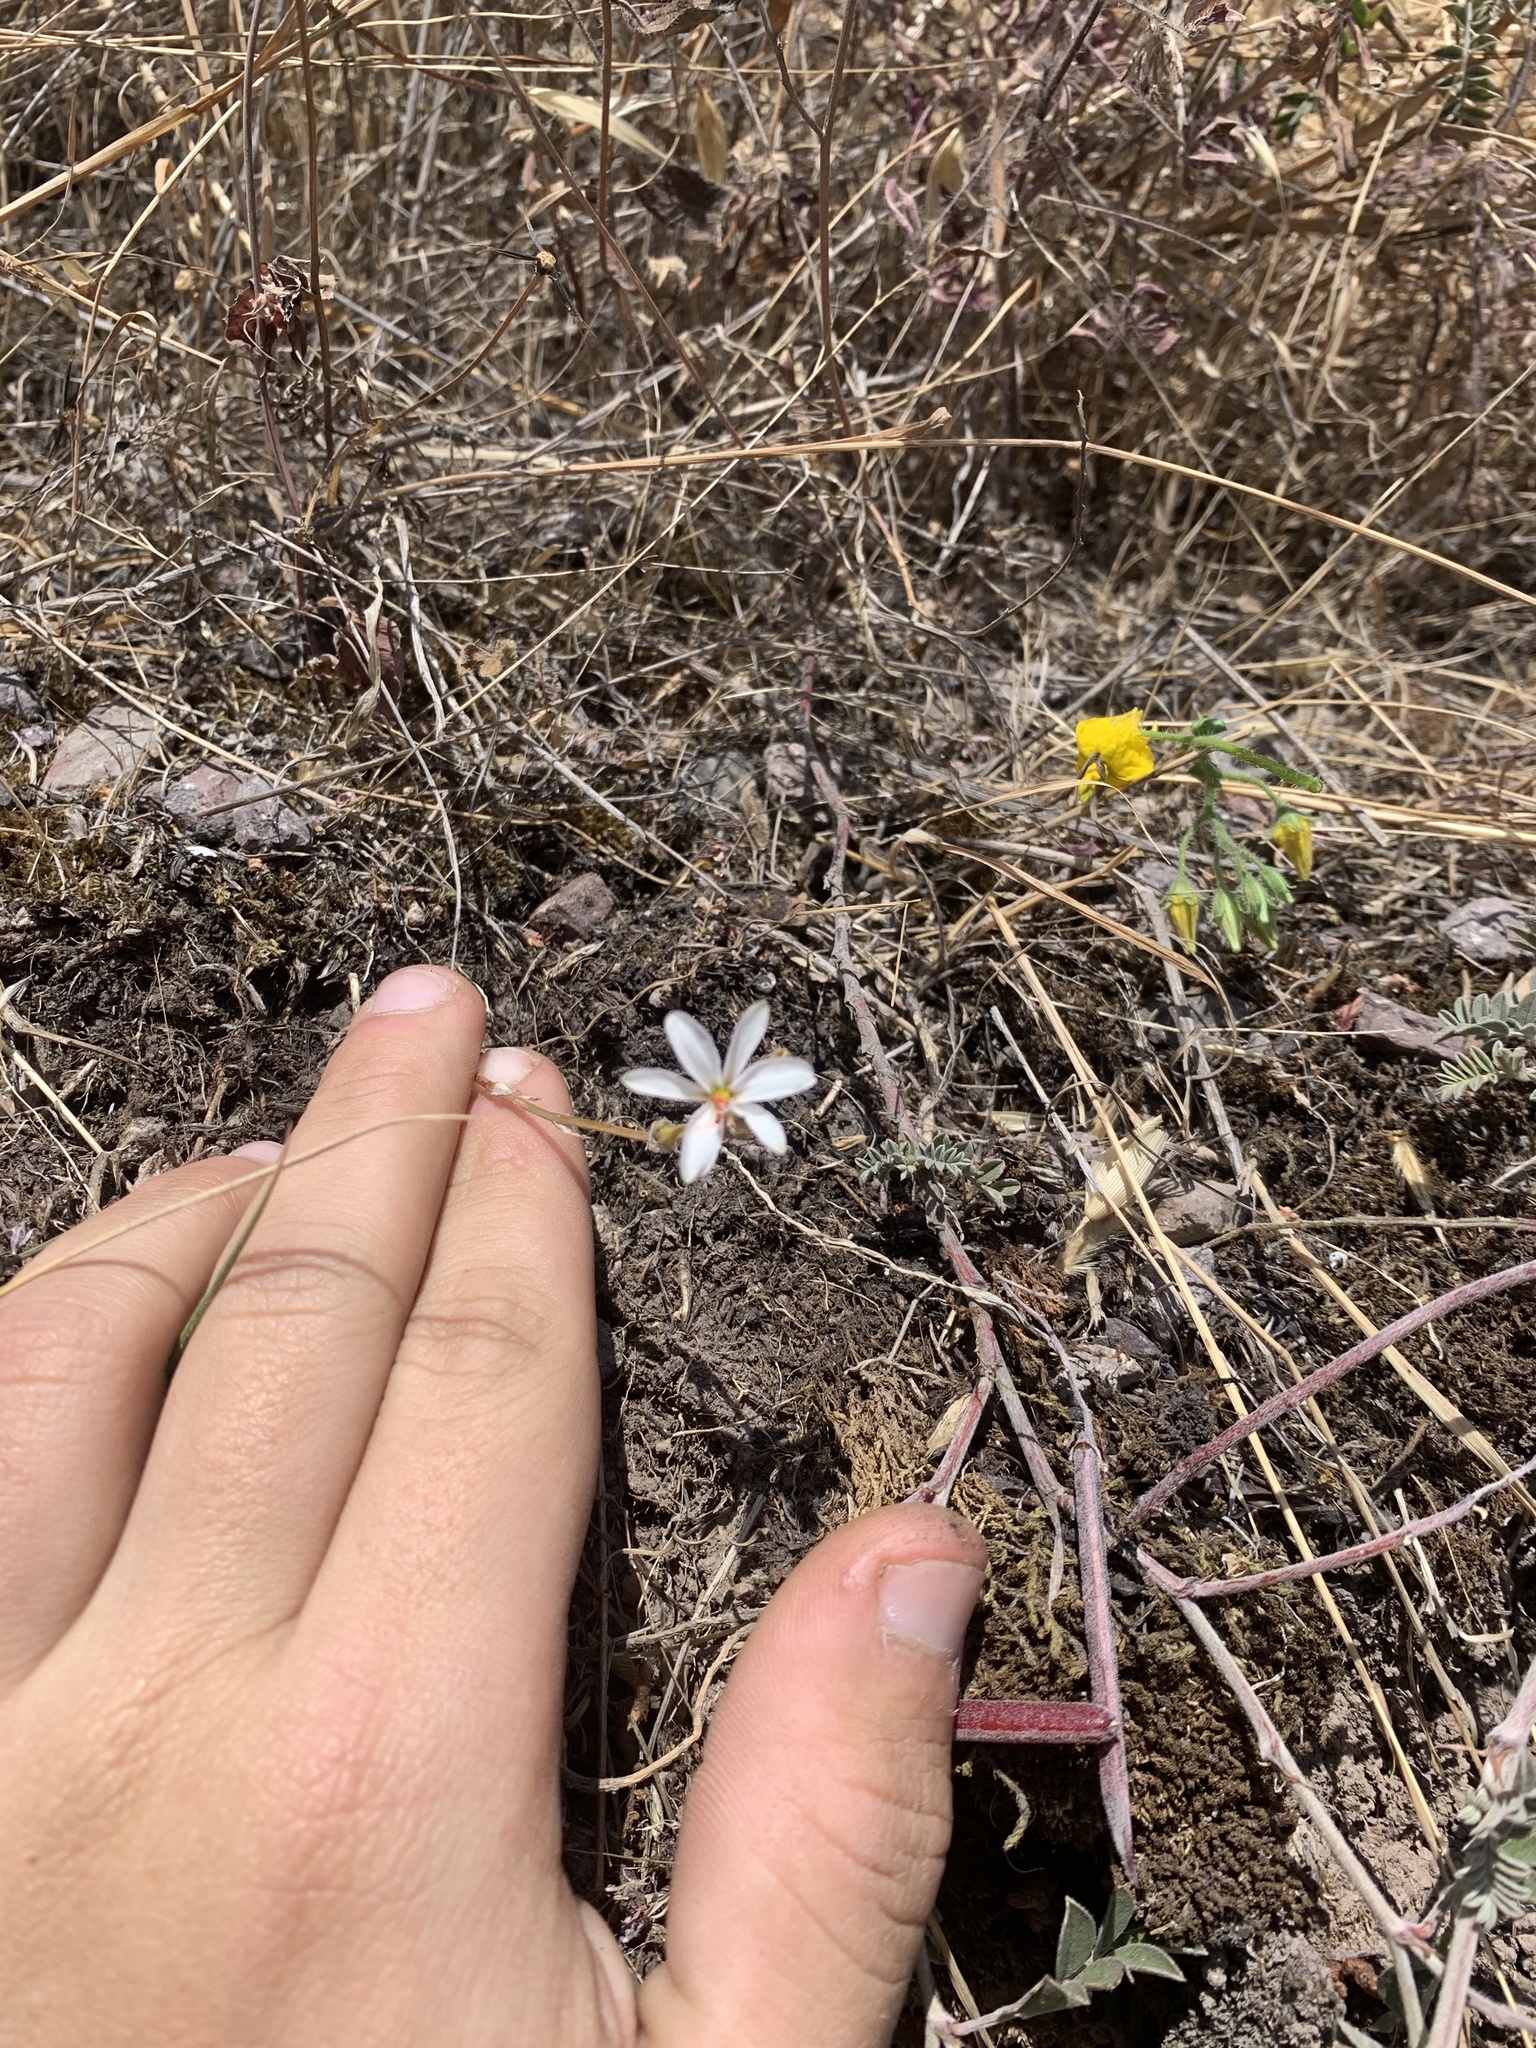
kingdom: Plantae
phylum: Tracheophyta
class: Liliopsida
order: Asparagales
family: Asparagaceae
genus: Echeandia
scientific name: Echeandia eccremorrhiza
